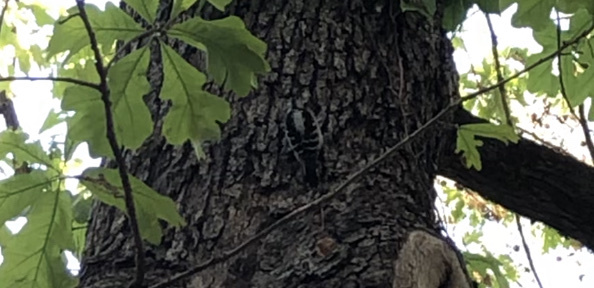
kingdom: Animalia
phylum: Chordata
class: Aves
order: Piciformes
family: Picidae
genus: Dryobates
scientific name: Dryobates pubescens
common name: Downy woodpecker
